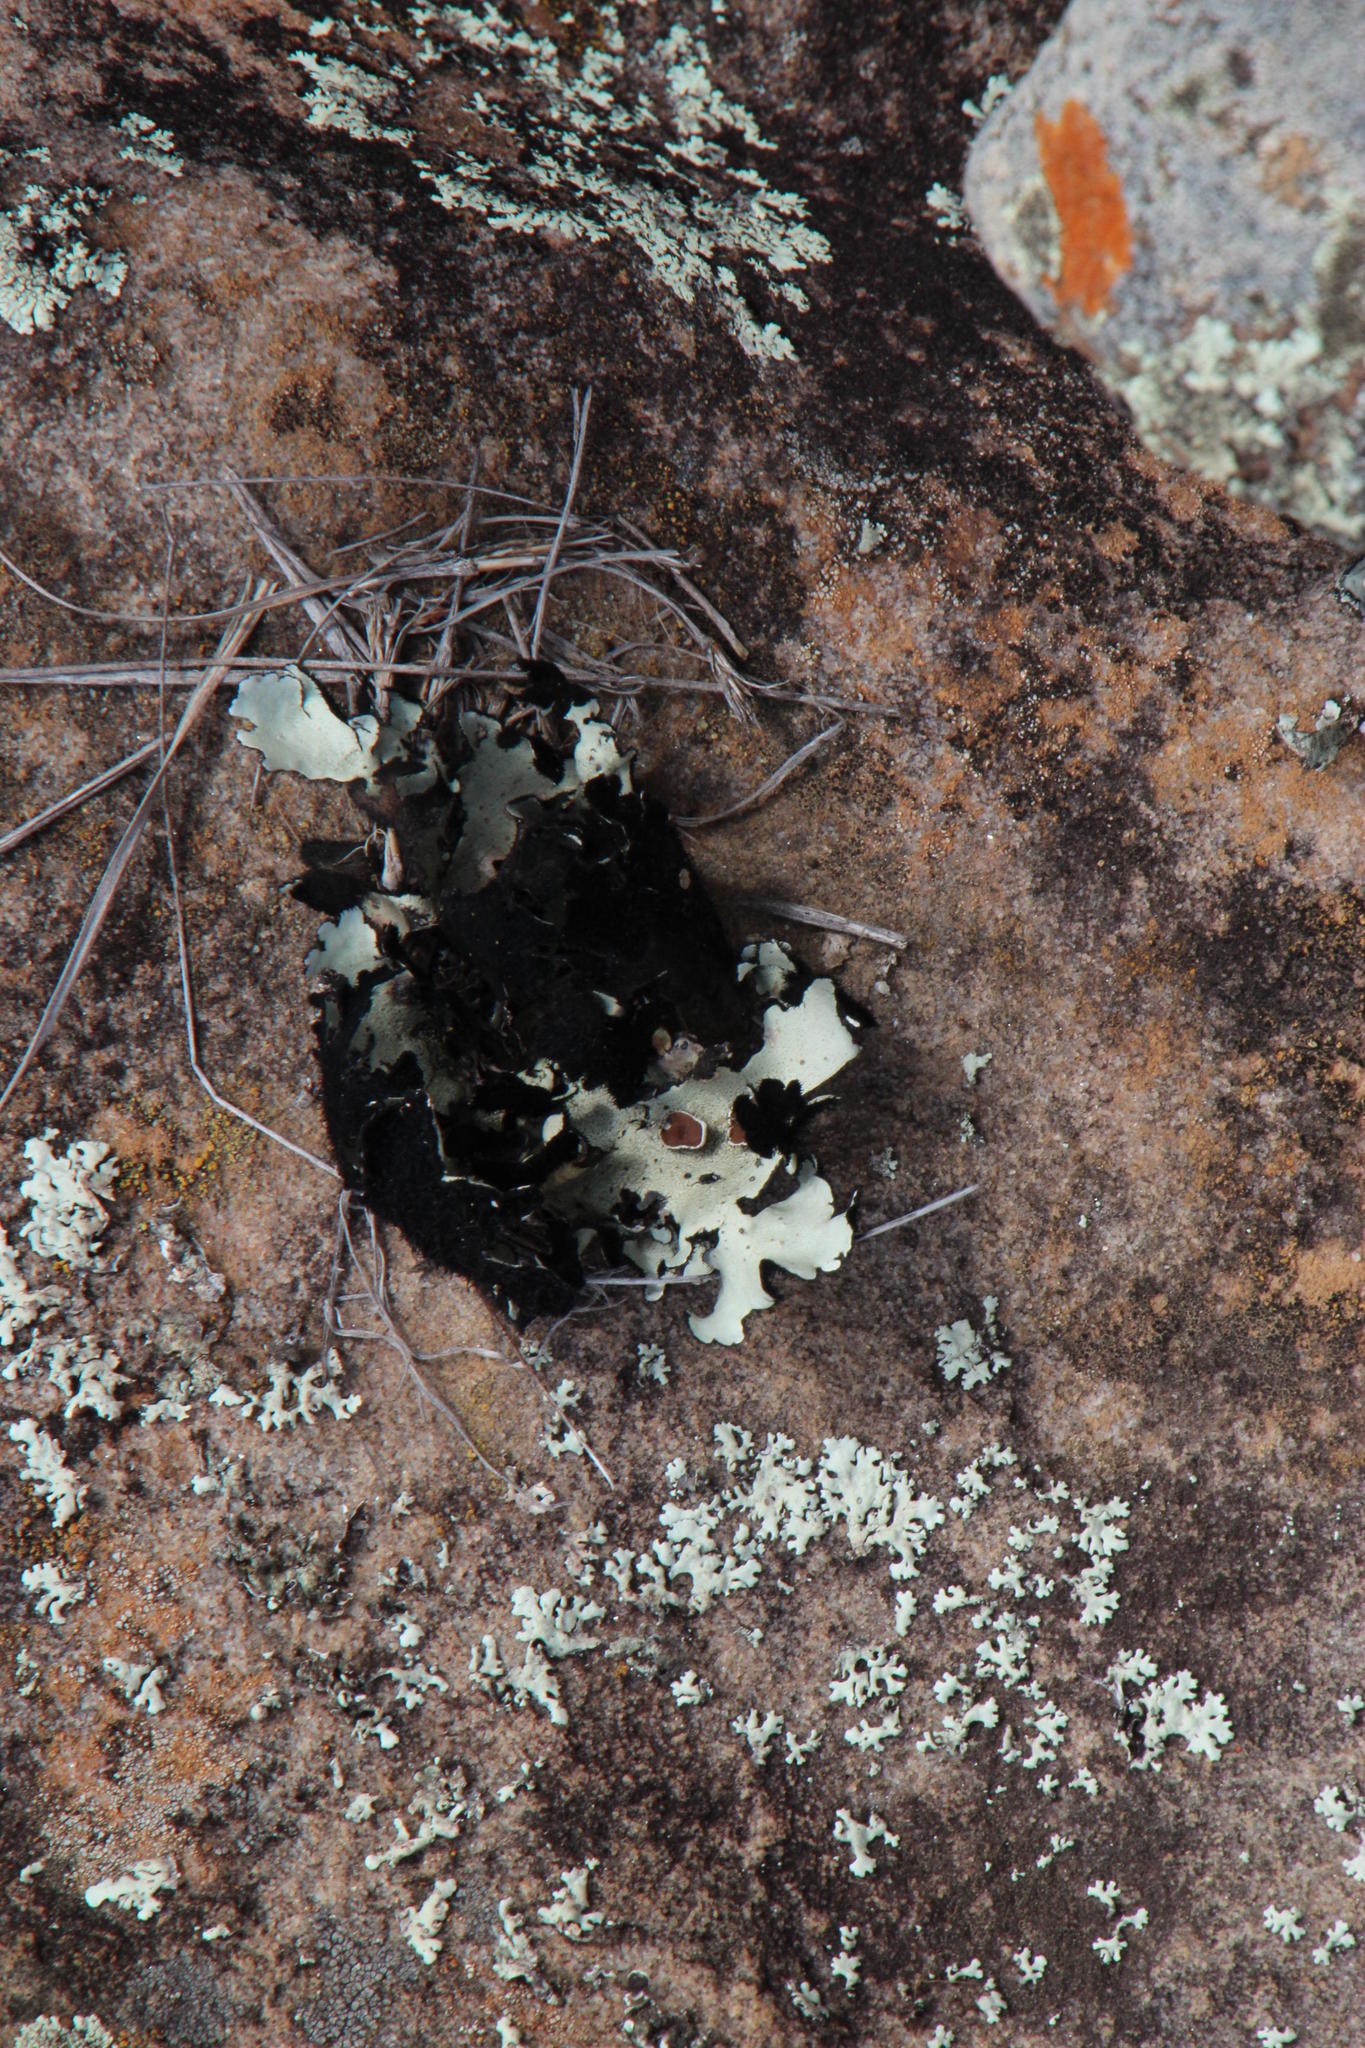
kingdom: Fungi
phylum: Ascomycota
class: Lecanoromycetes
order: Lecanorales
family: Parmeliaceae
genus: Xanthoparmelia
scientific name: Xanthoparmelia hottentotta
